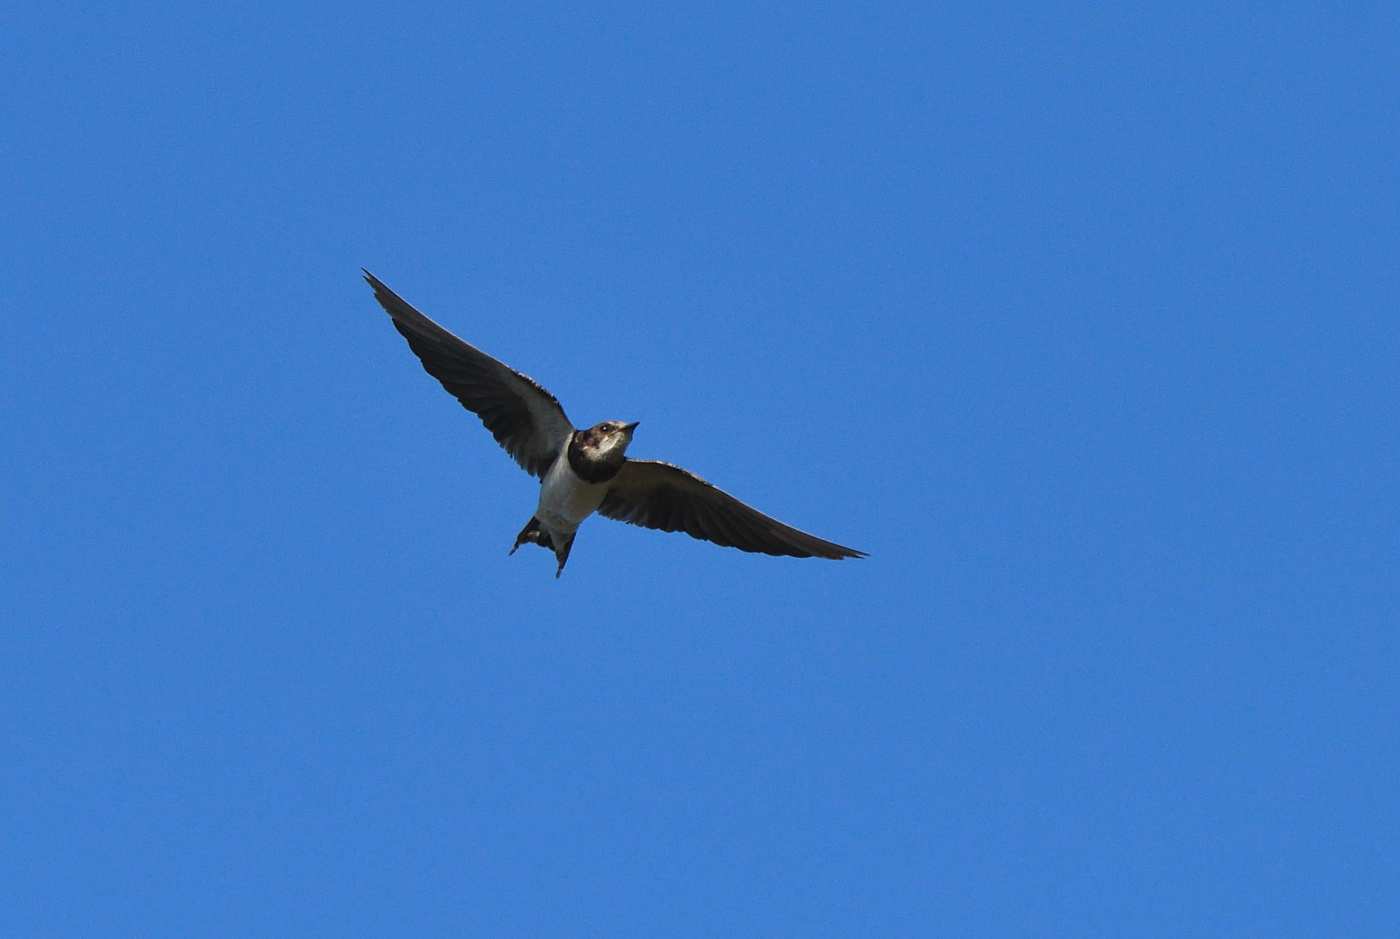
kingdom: Animalia
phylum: Chordata
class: Aves
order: Passeriformes
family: Hirundinidae
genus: Hirundo
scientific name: Hirundo rustica
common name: Barn swallow
